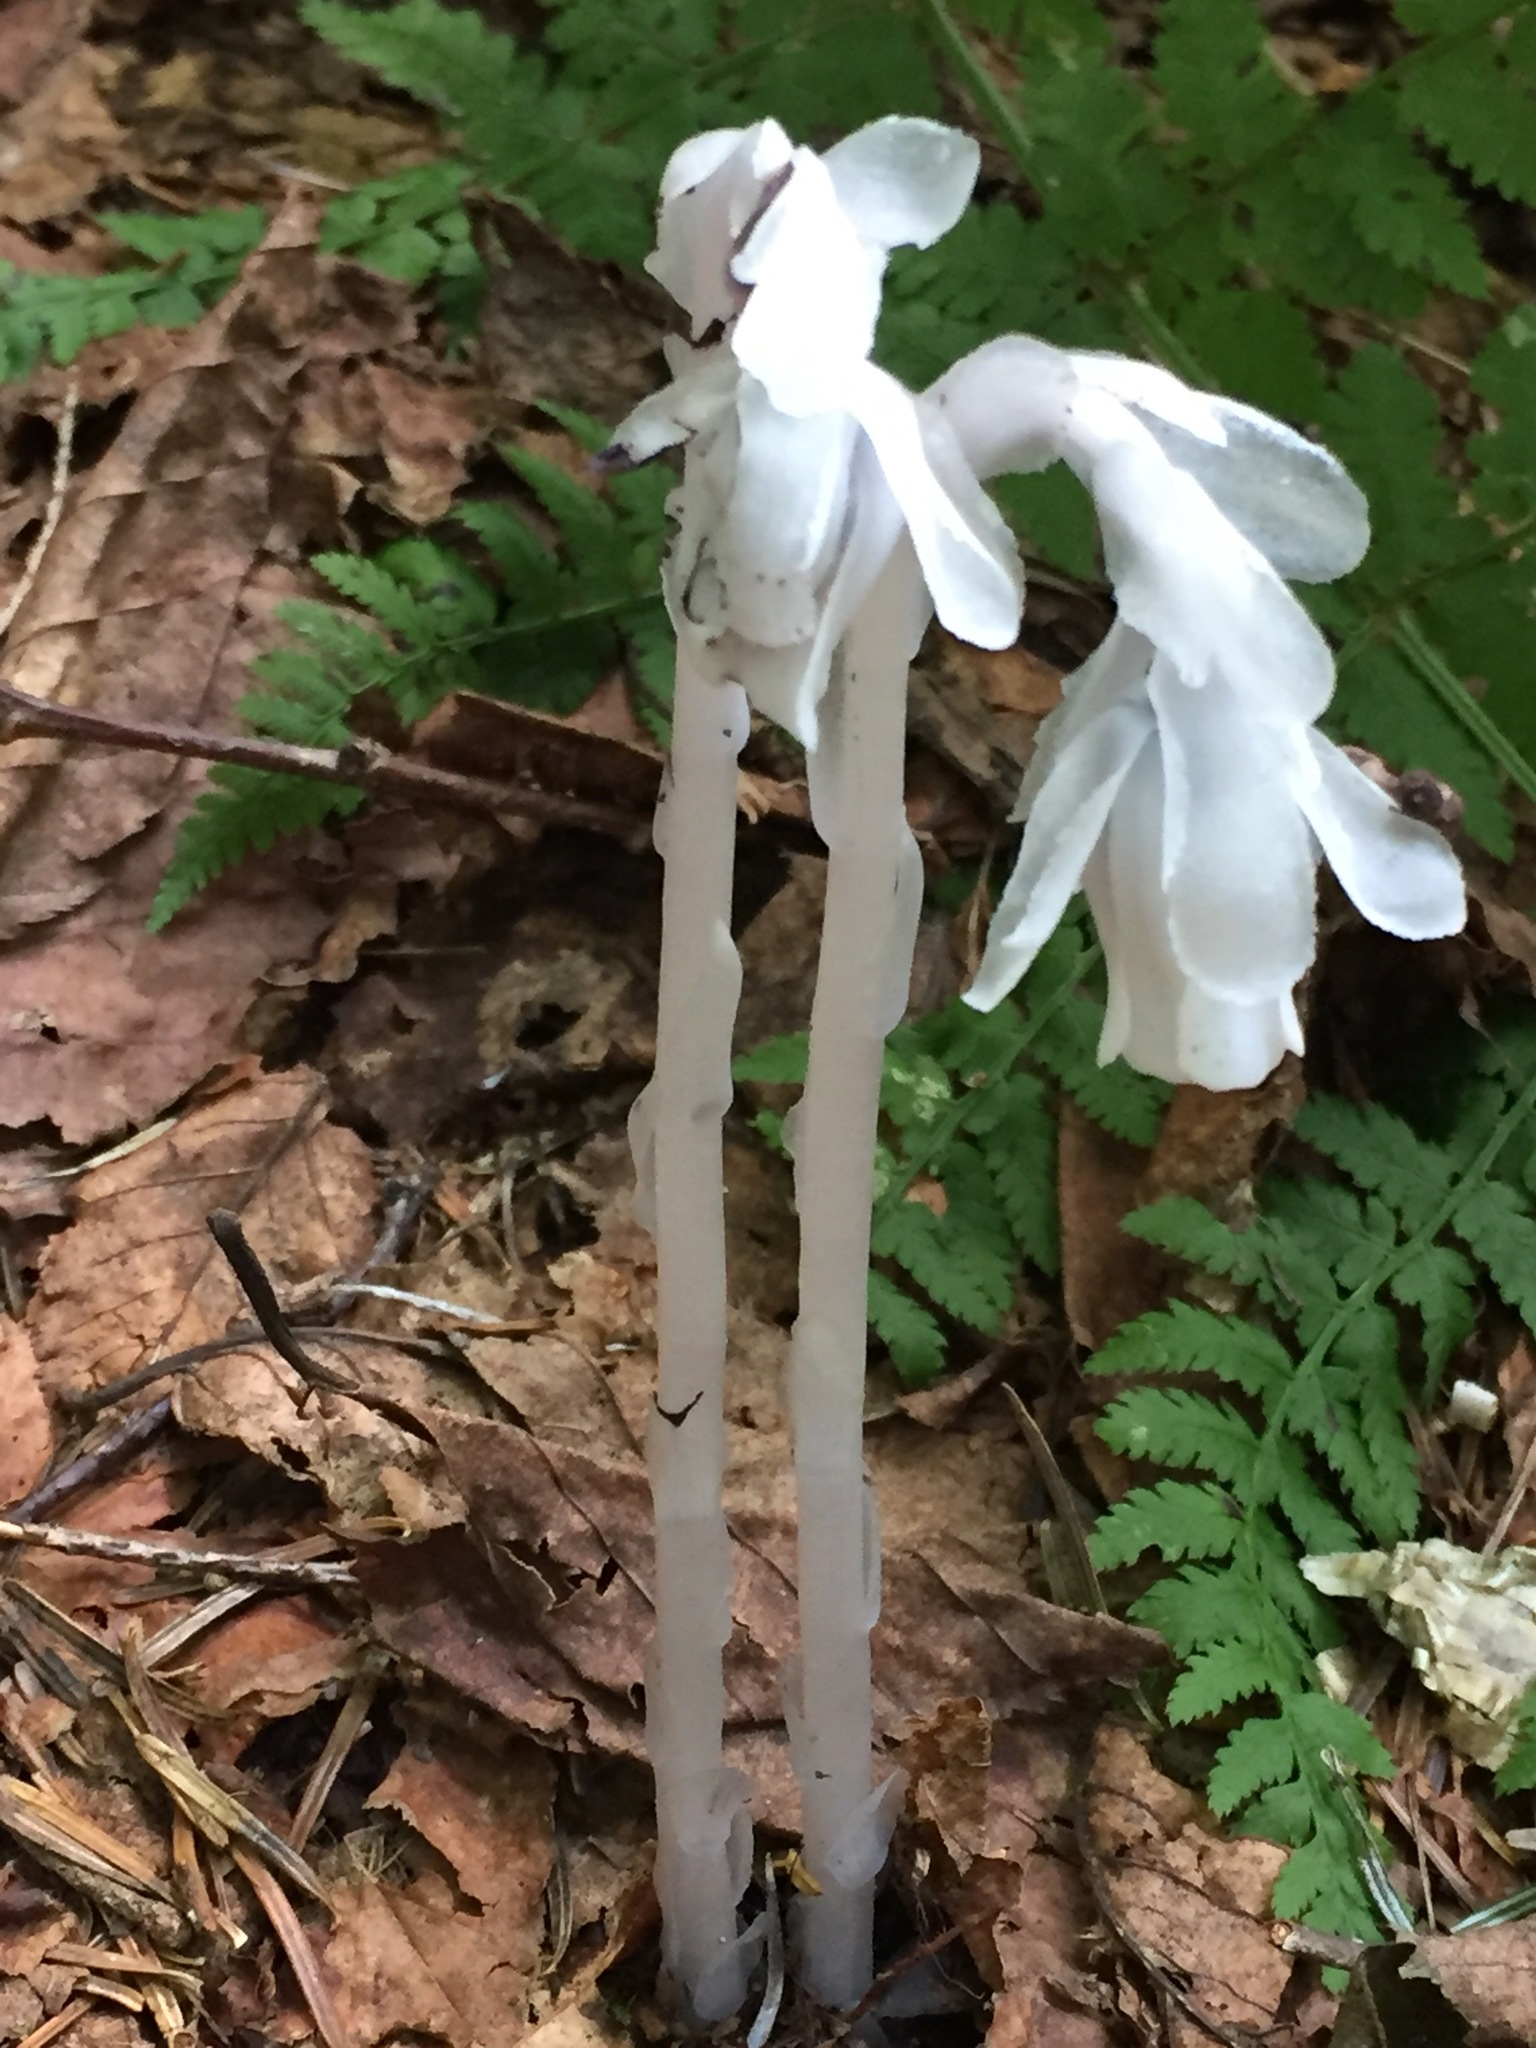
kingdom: Plantae
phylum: Tracheophyta
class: Magnoliopsida
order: Ericales
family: Ericaceae
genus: Monotropa
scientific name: Monotropa uniflora
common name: Convulsion root
